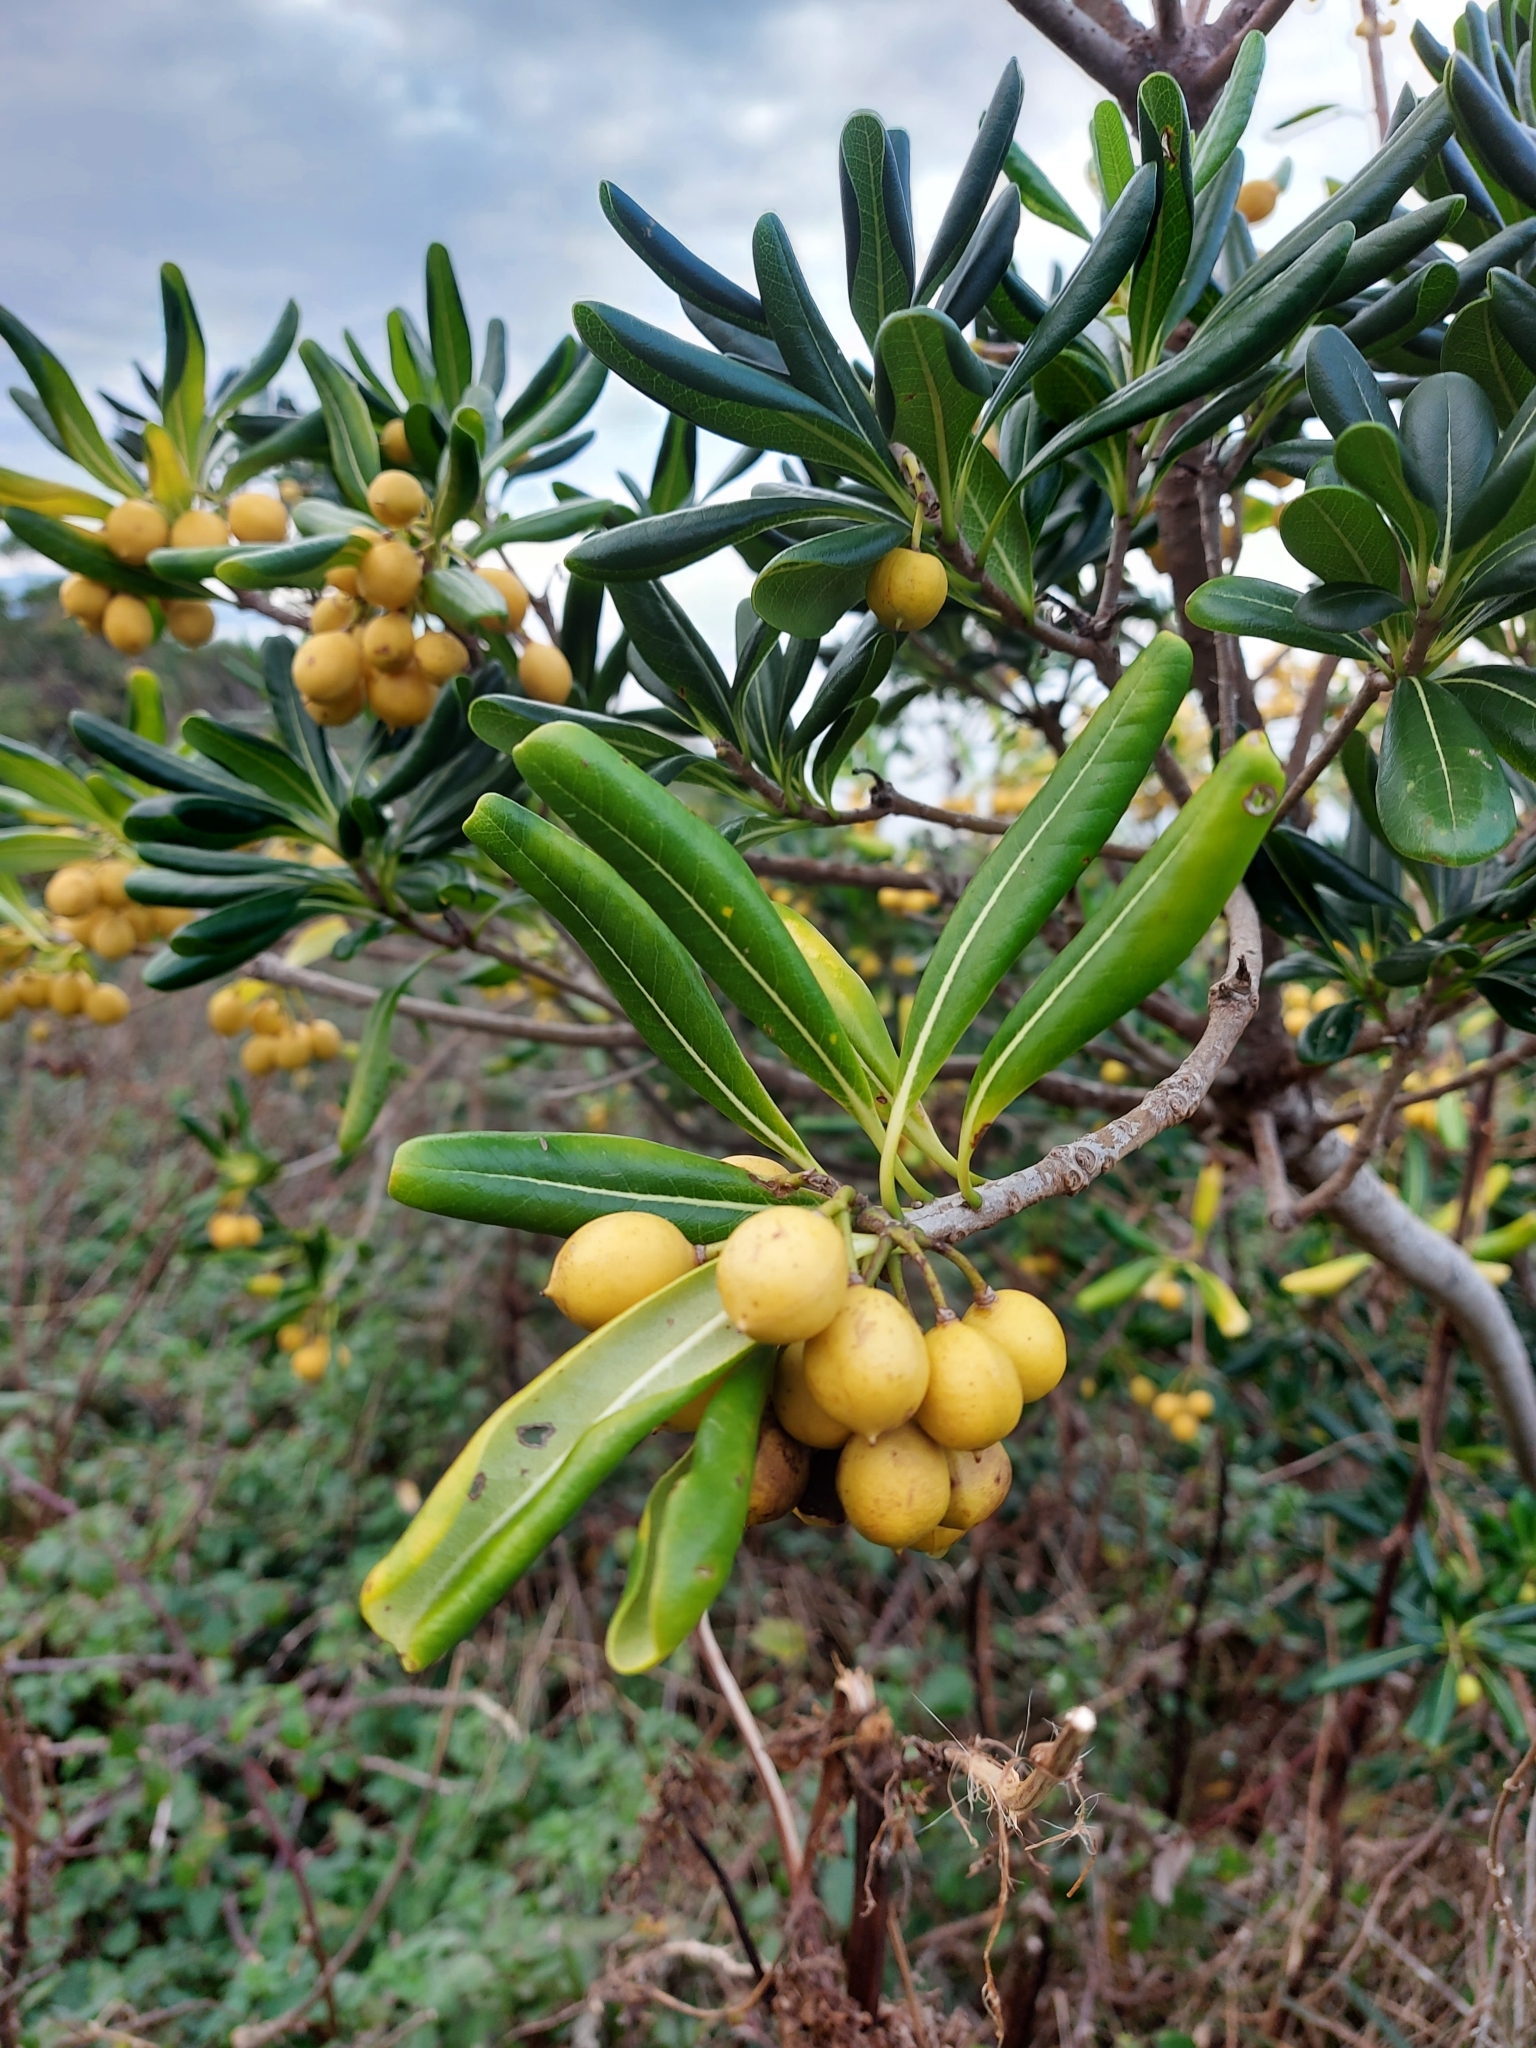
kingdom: Plantae
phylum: Tracheophyta
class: Magnoliopsida
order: Apiales
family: Pittosporaceae
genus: Pittosporum
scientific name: Pittosporum tobira
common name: Japanese cheesewood
